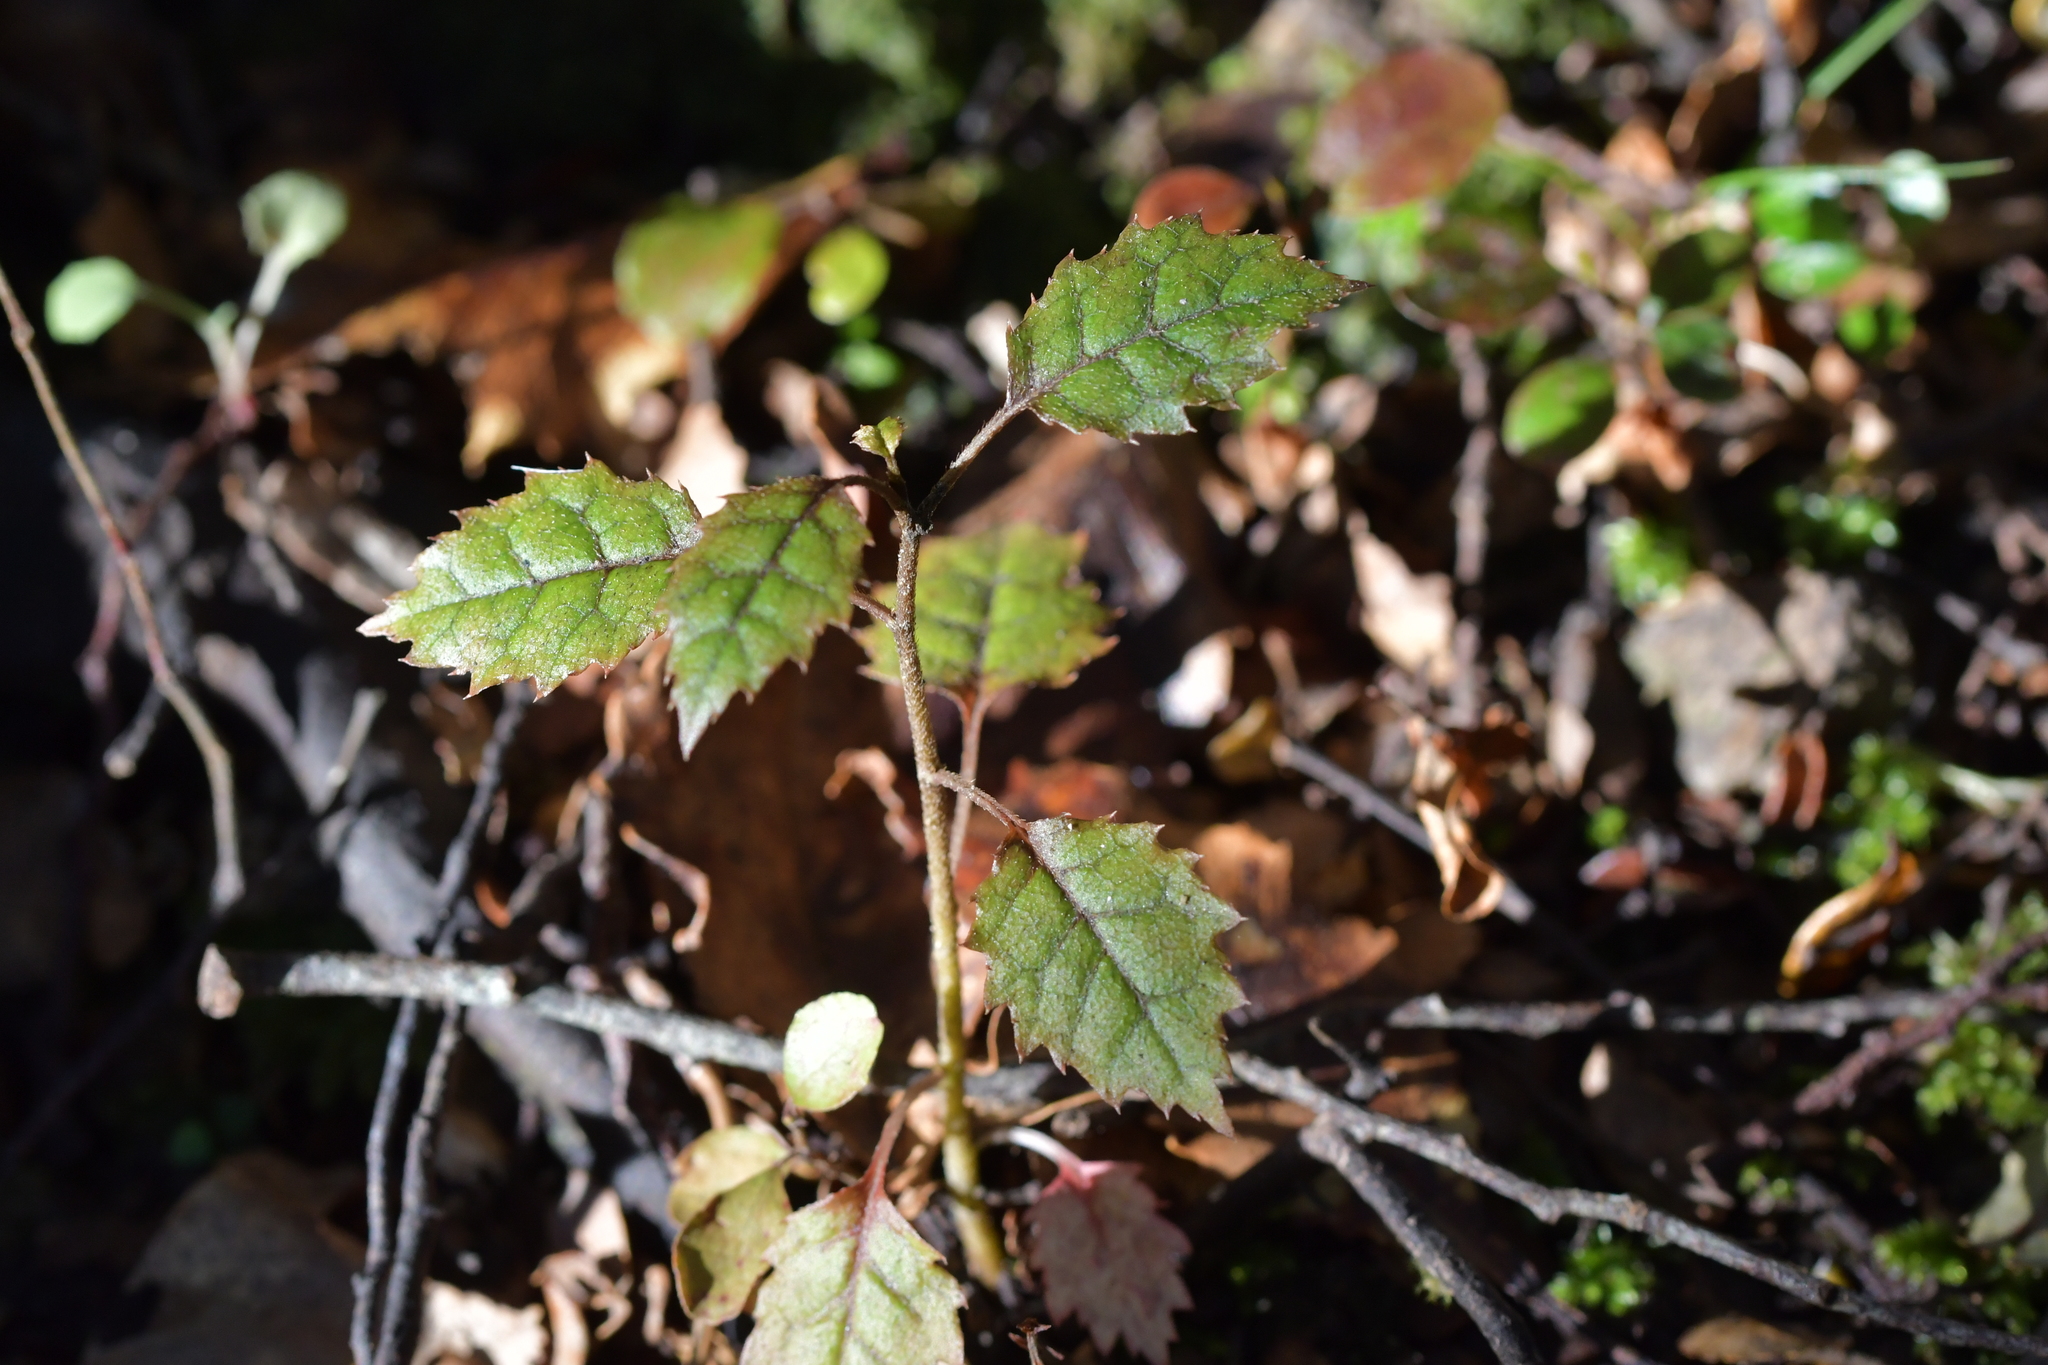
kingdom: Plantae
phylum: Tracheophyta
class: Magnoliopsida
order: Asterales
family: Rousseaceae
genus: Carpodetus
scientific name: Carpodetus serratus
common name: White mapau
